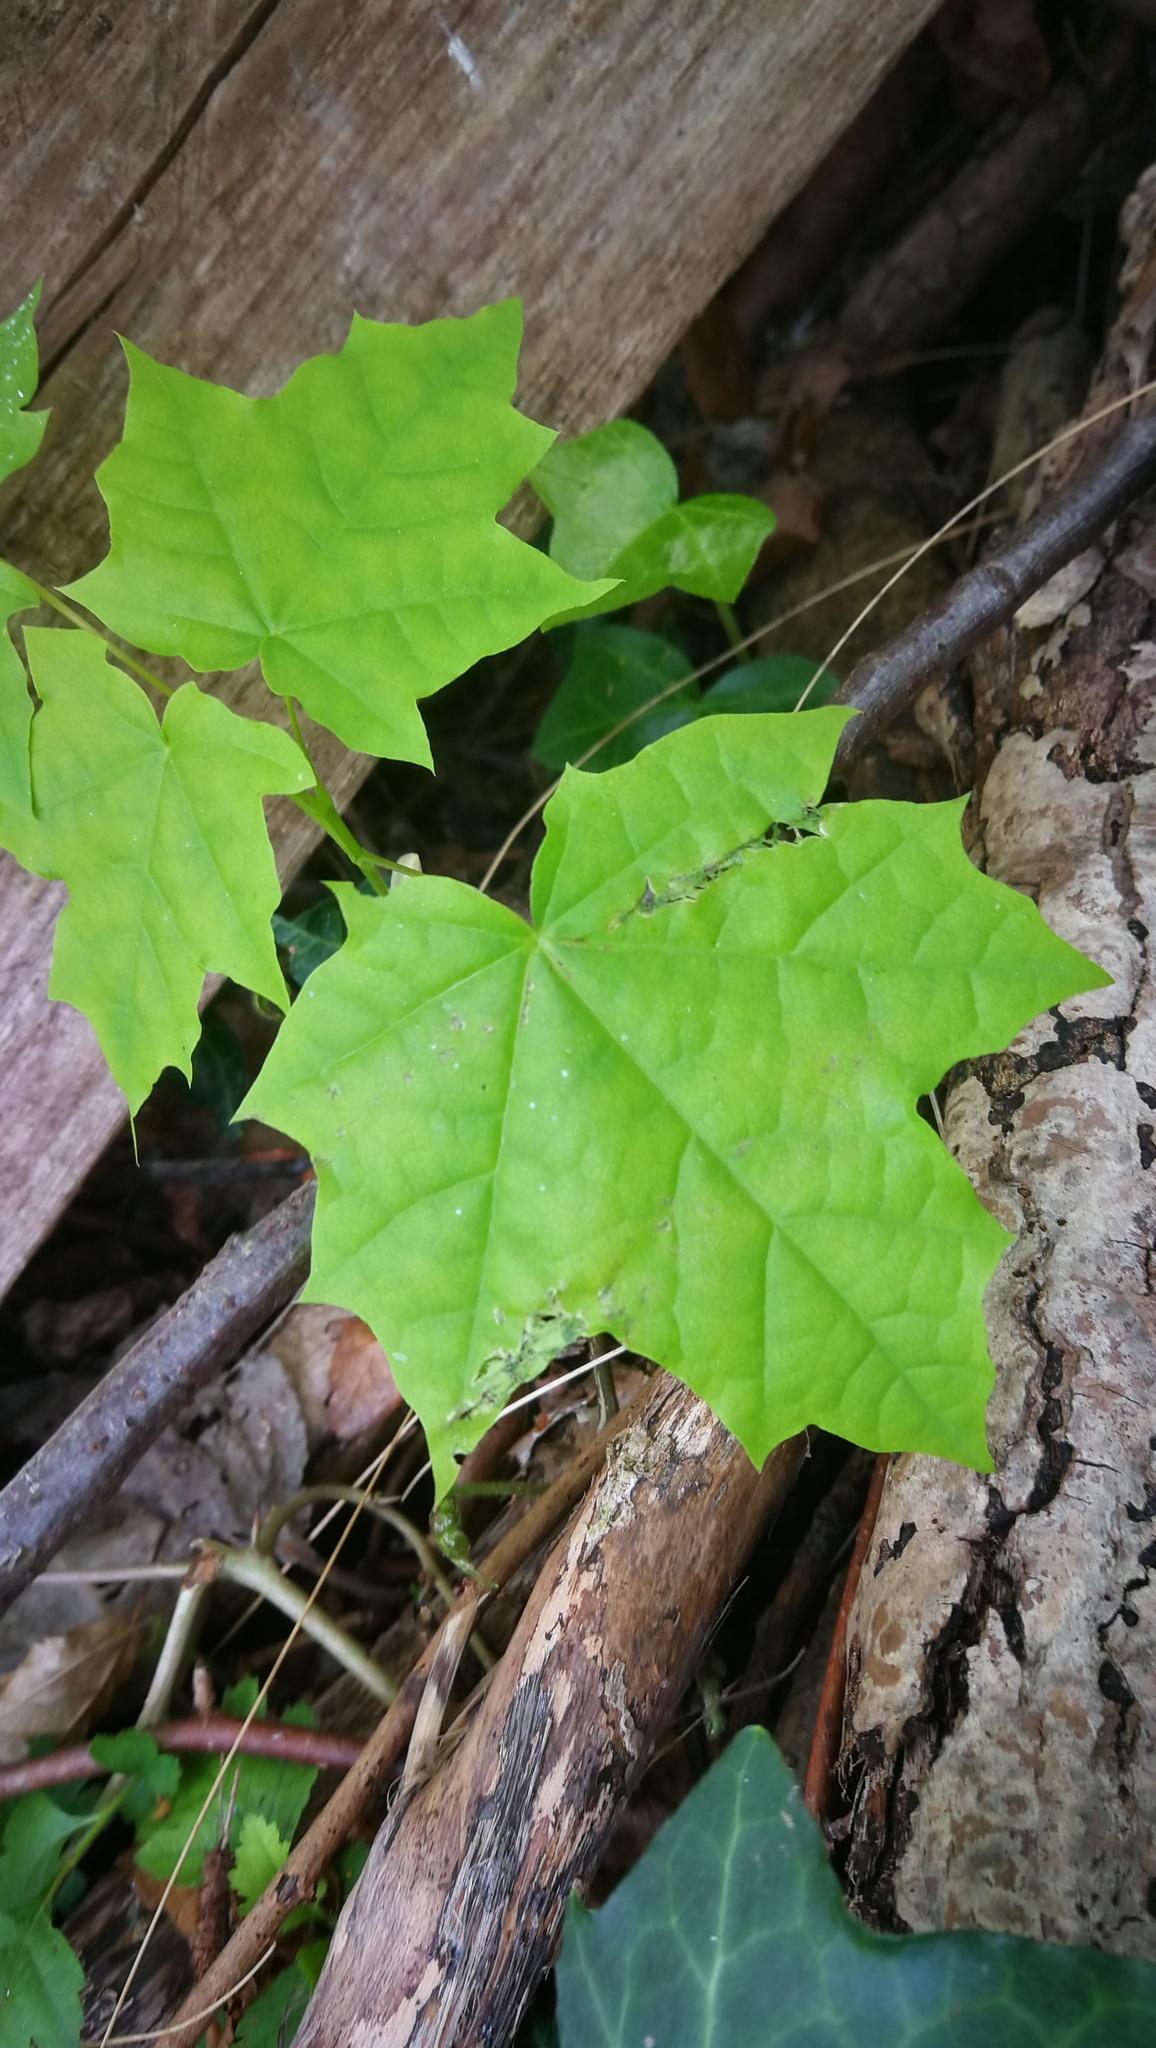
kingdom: Plantae
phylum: Tracheophyta
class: Magnoliopsida
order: Sapindales
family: Sapindaceae
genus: Acer
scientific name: Acer platanoides
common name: Norway maple
